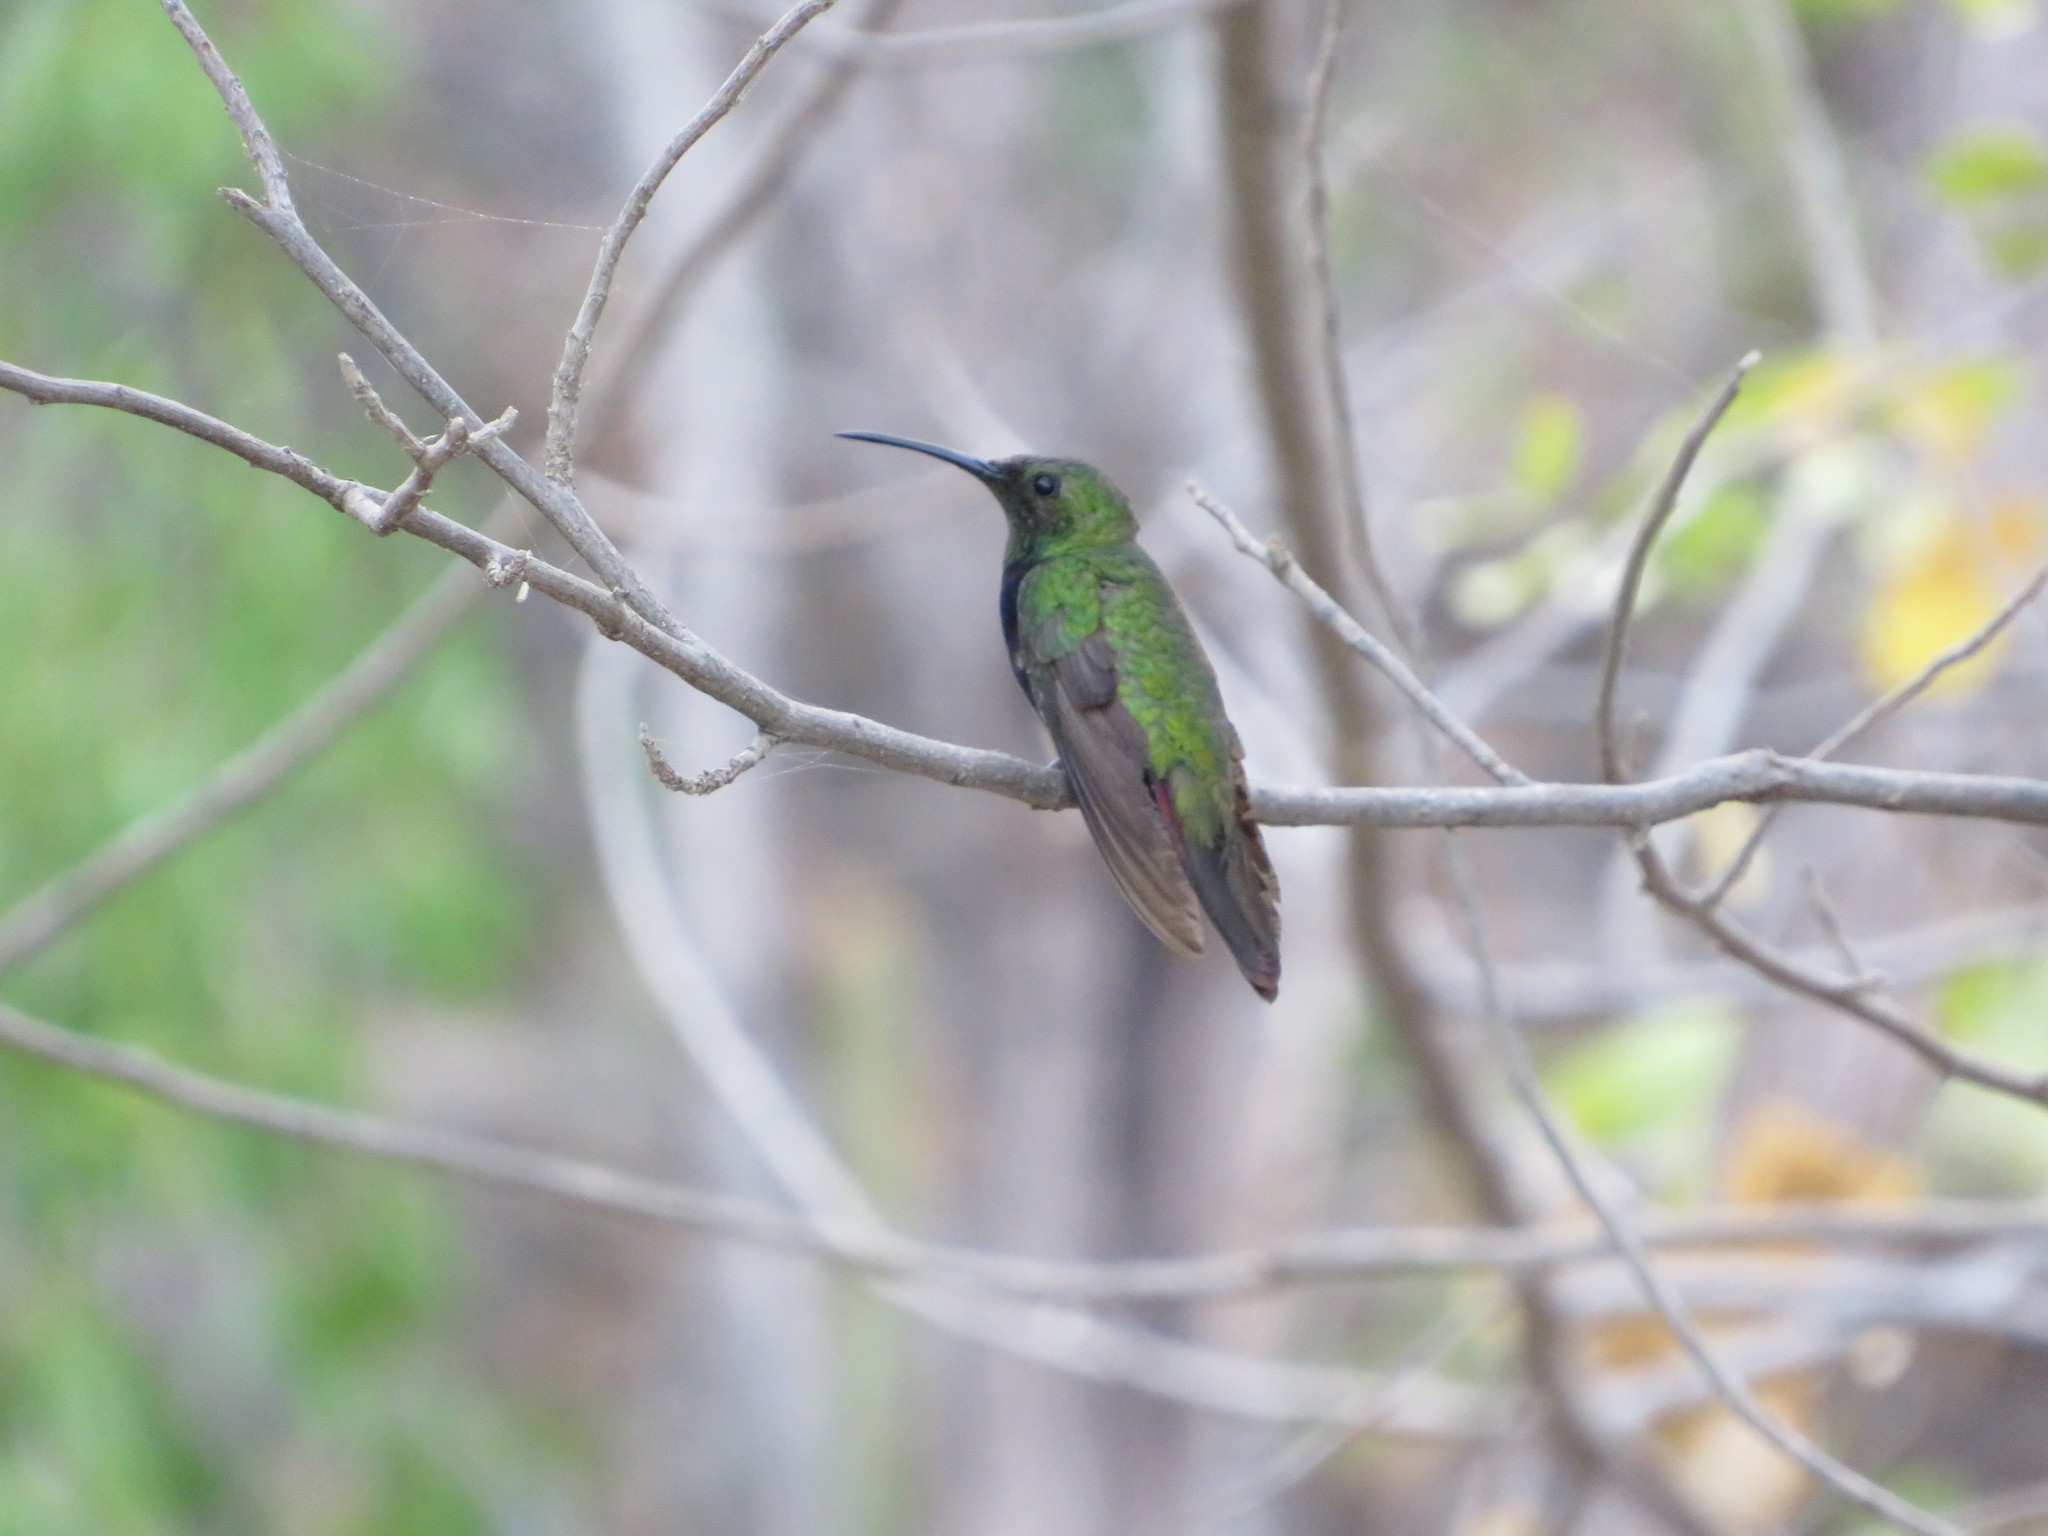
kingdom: Animalia
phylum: Chordata
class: Aves
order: Apodiformes
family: Trochilidae
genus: Anthracothorax
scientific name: Anthracothorax dominicus
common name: Antillean mango
